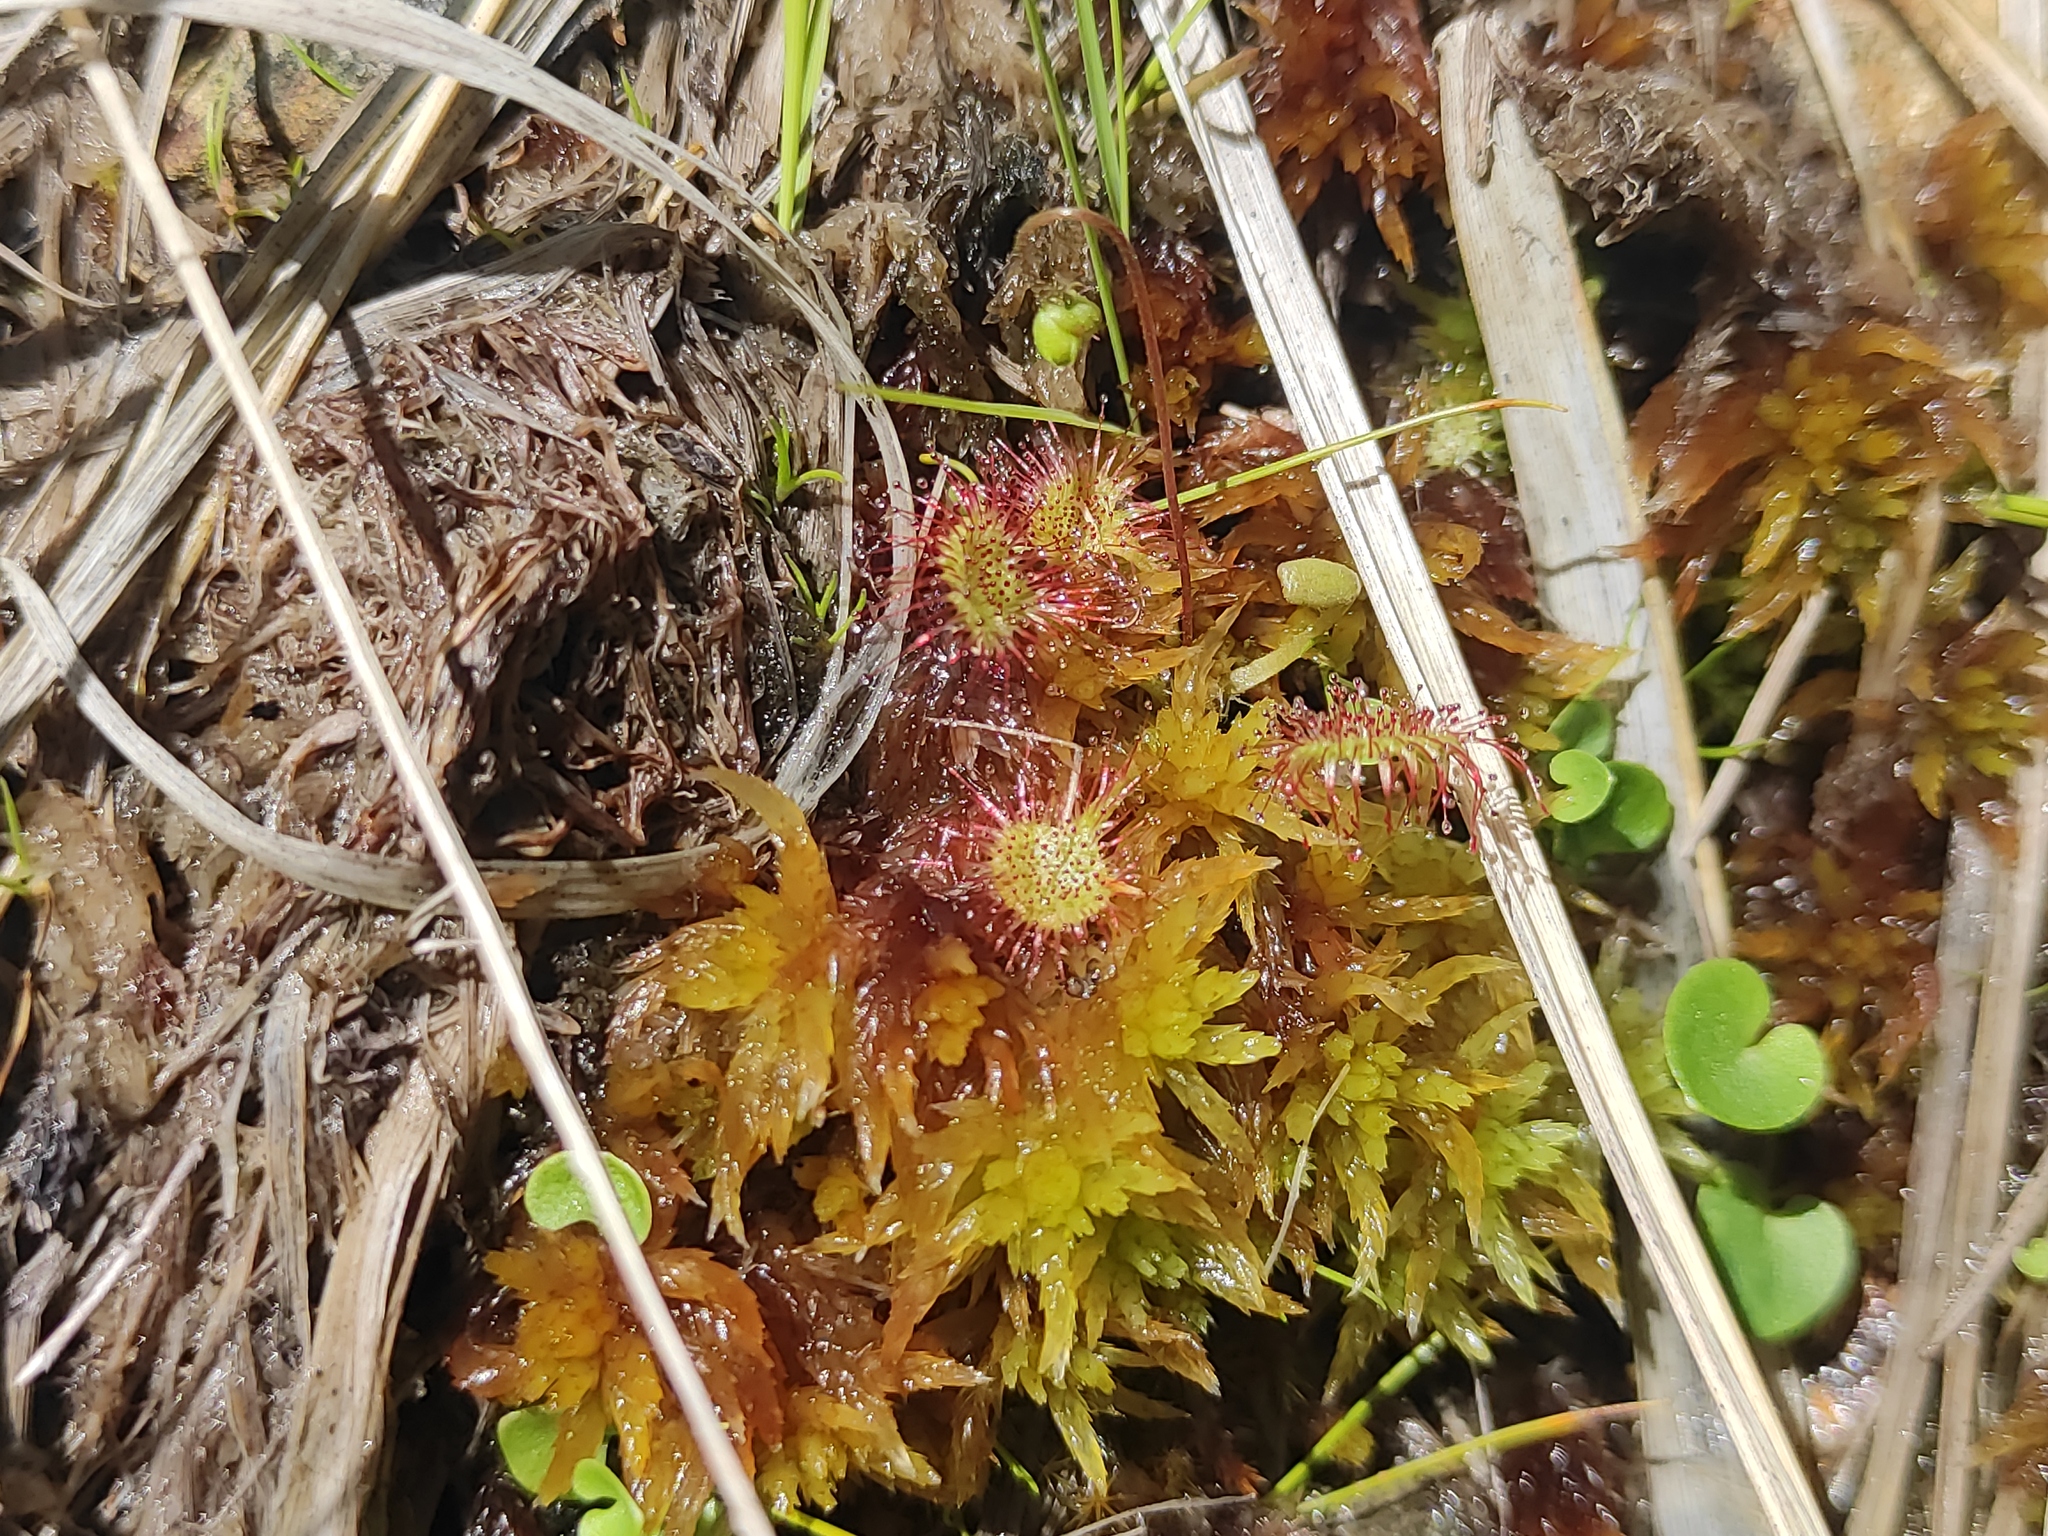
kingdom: Plantae
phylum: Tracheophyta
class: Magnoliopsida
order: Caryophyllales
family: Droseraceae
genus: Drosera
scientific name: Drosera rotundifolia
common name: Round-leaved sundew
